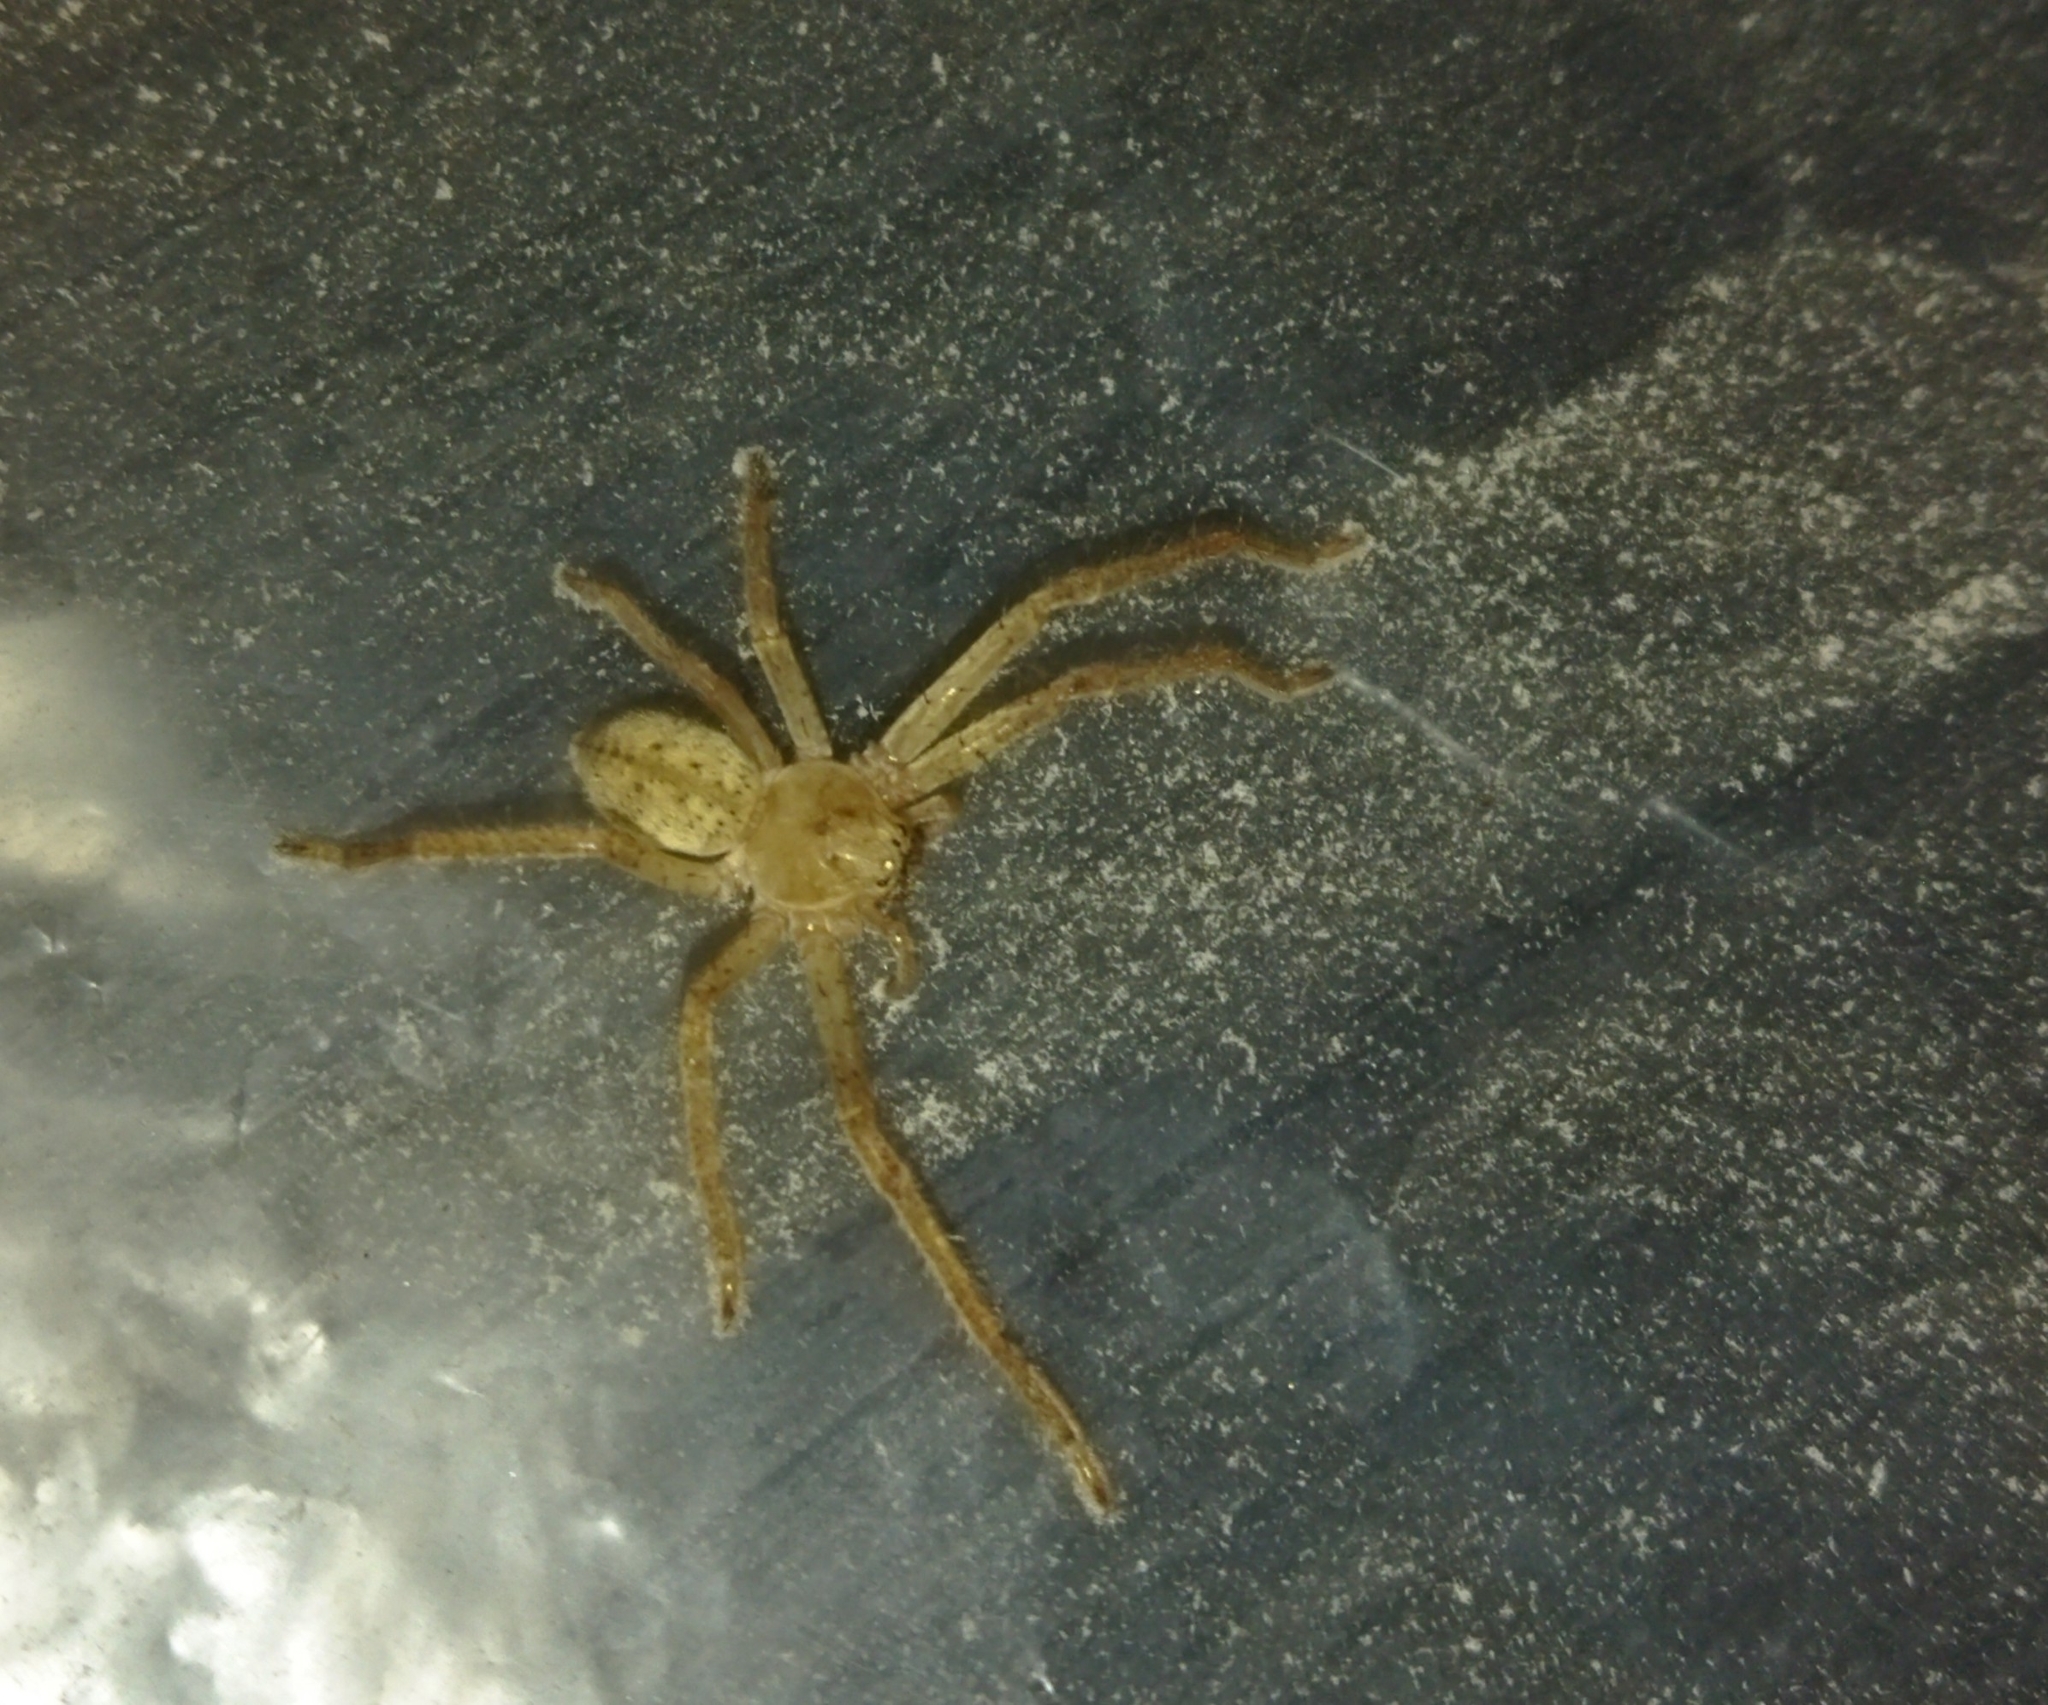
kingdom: Animalia
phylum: Arthropoda
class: Arachnida
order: Araneae
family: Sparassidae
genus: Olios
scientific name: Olios sericeus
